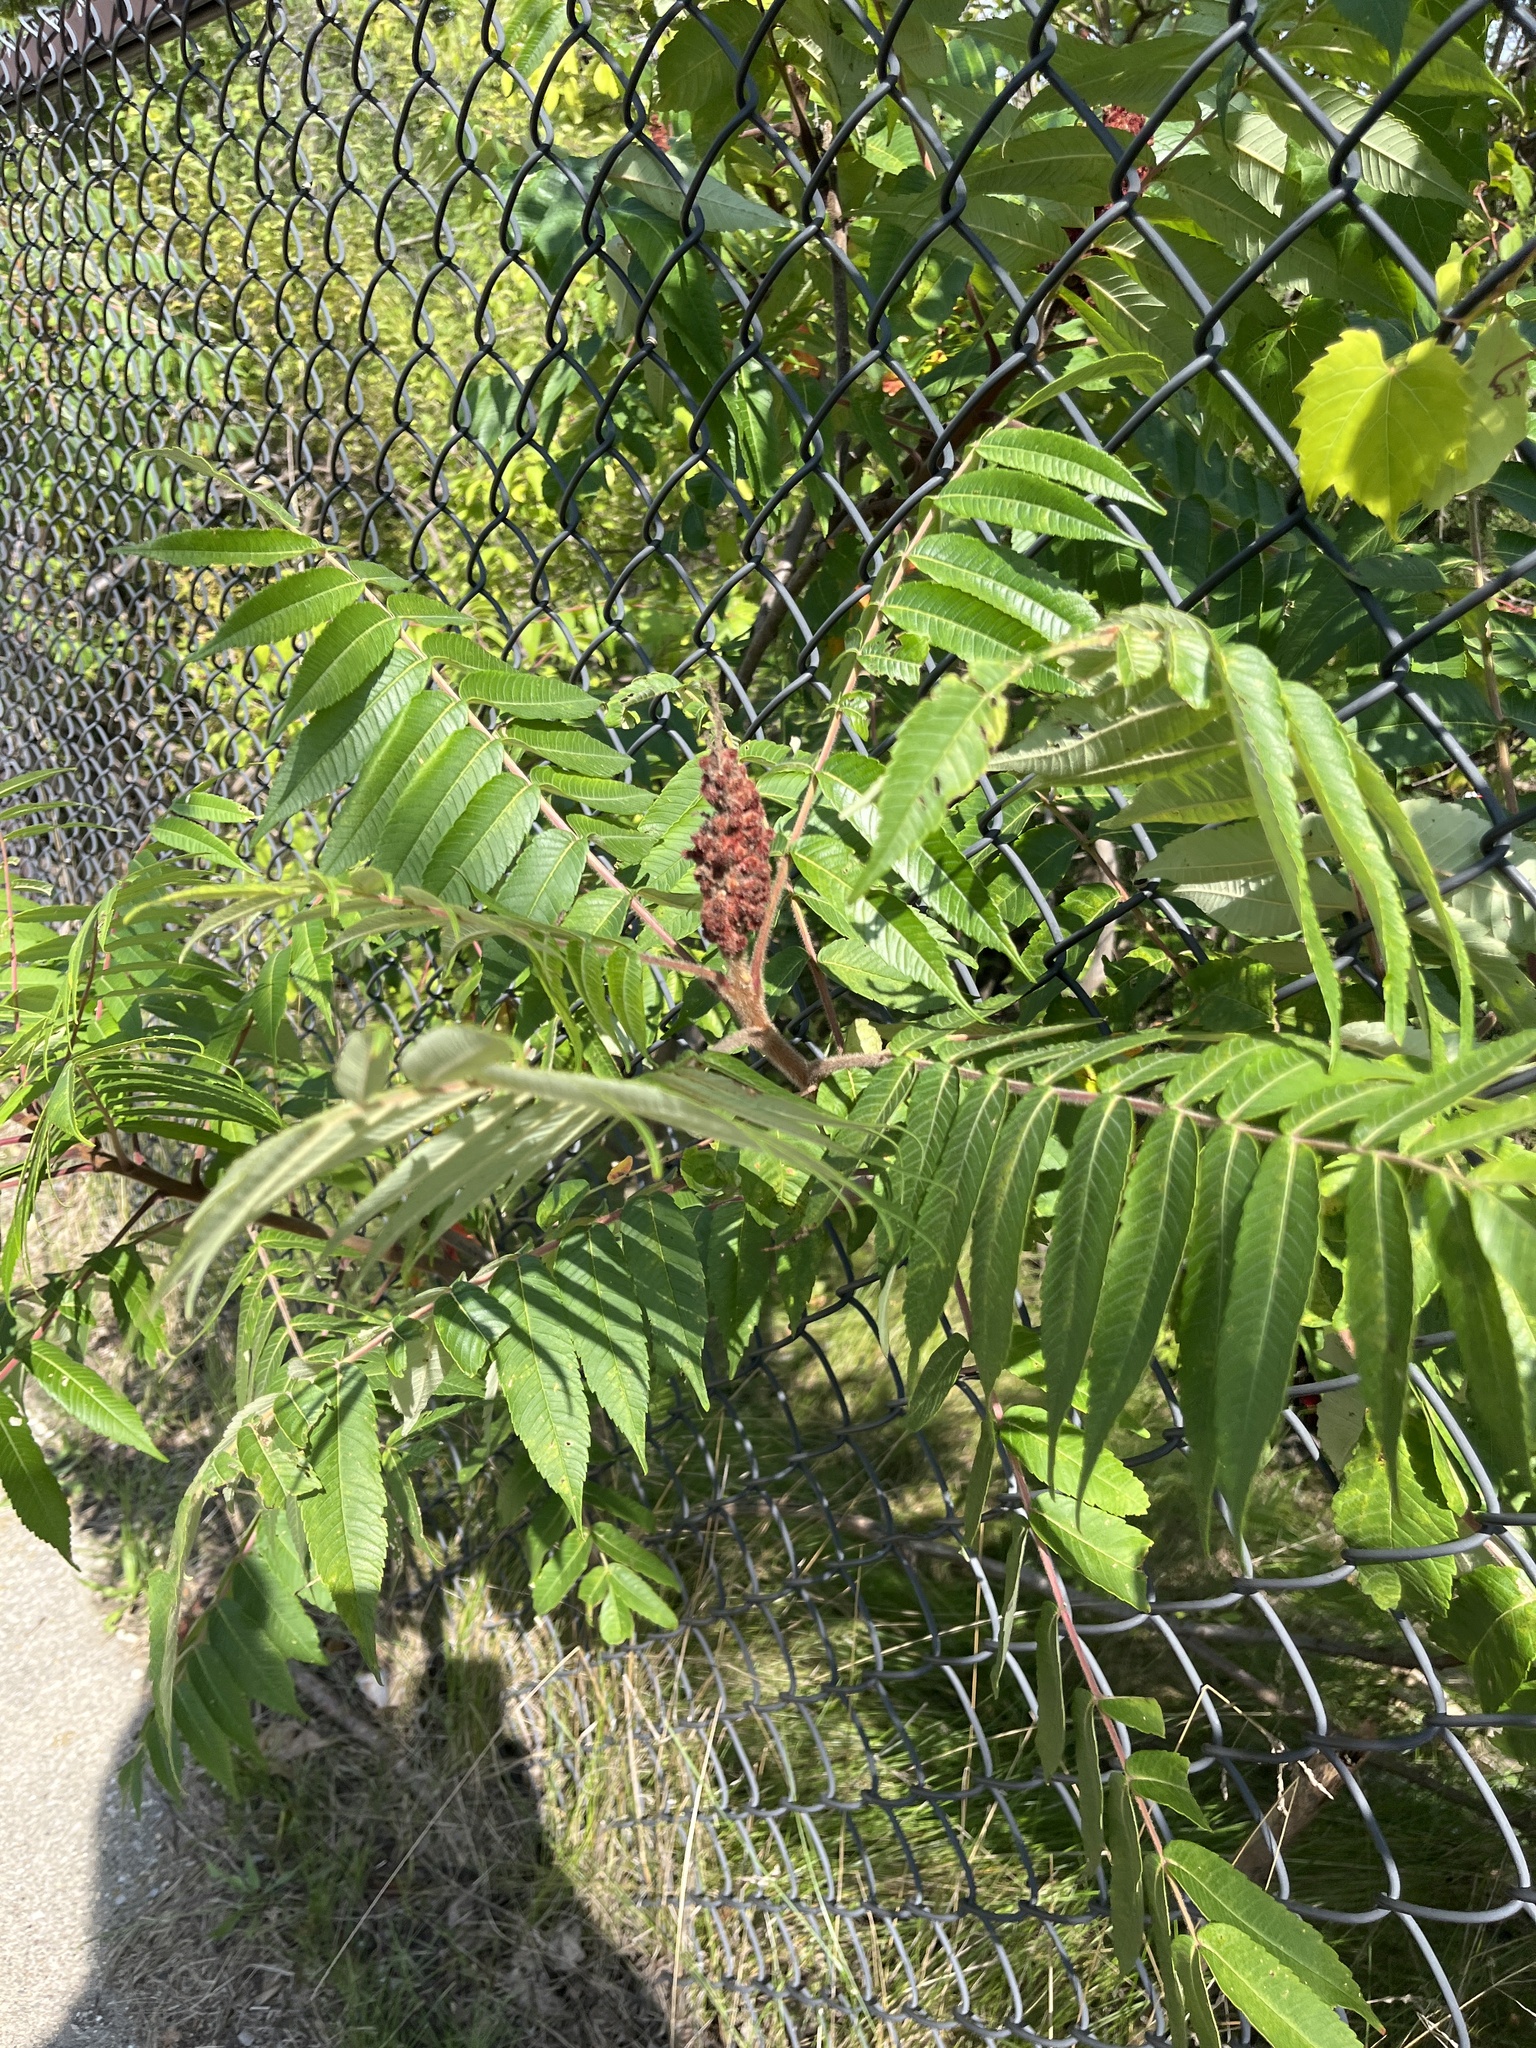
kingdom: Plantae
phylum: Tracheophyta
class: Magnoliopsida
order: Sapindales
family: Anacardiaceae
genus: Rhus
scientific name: Rhus typhina
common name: Staghorn sumac
